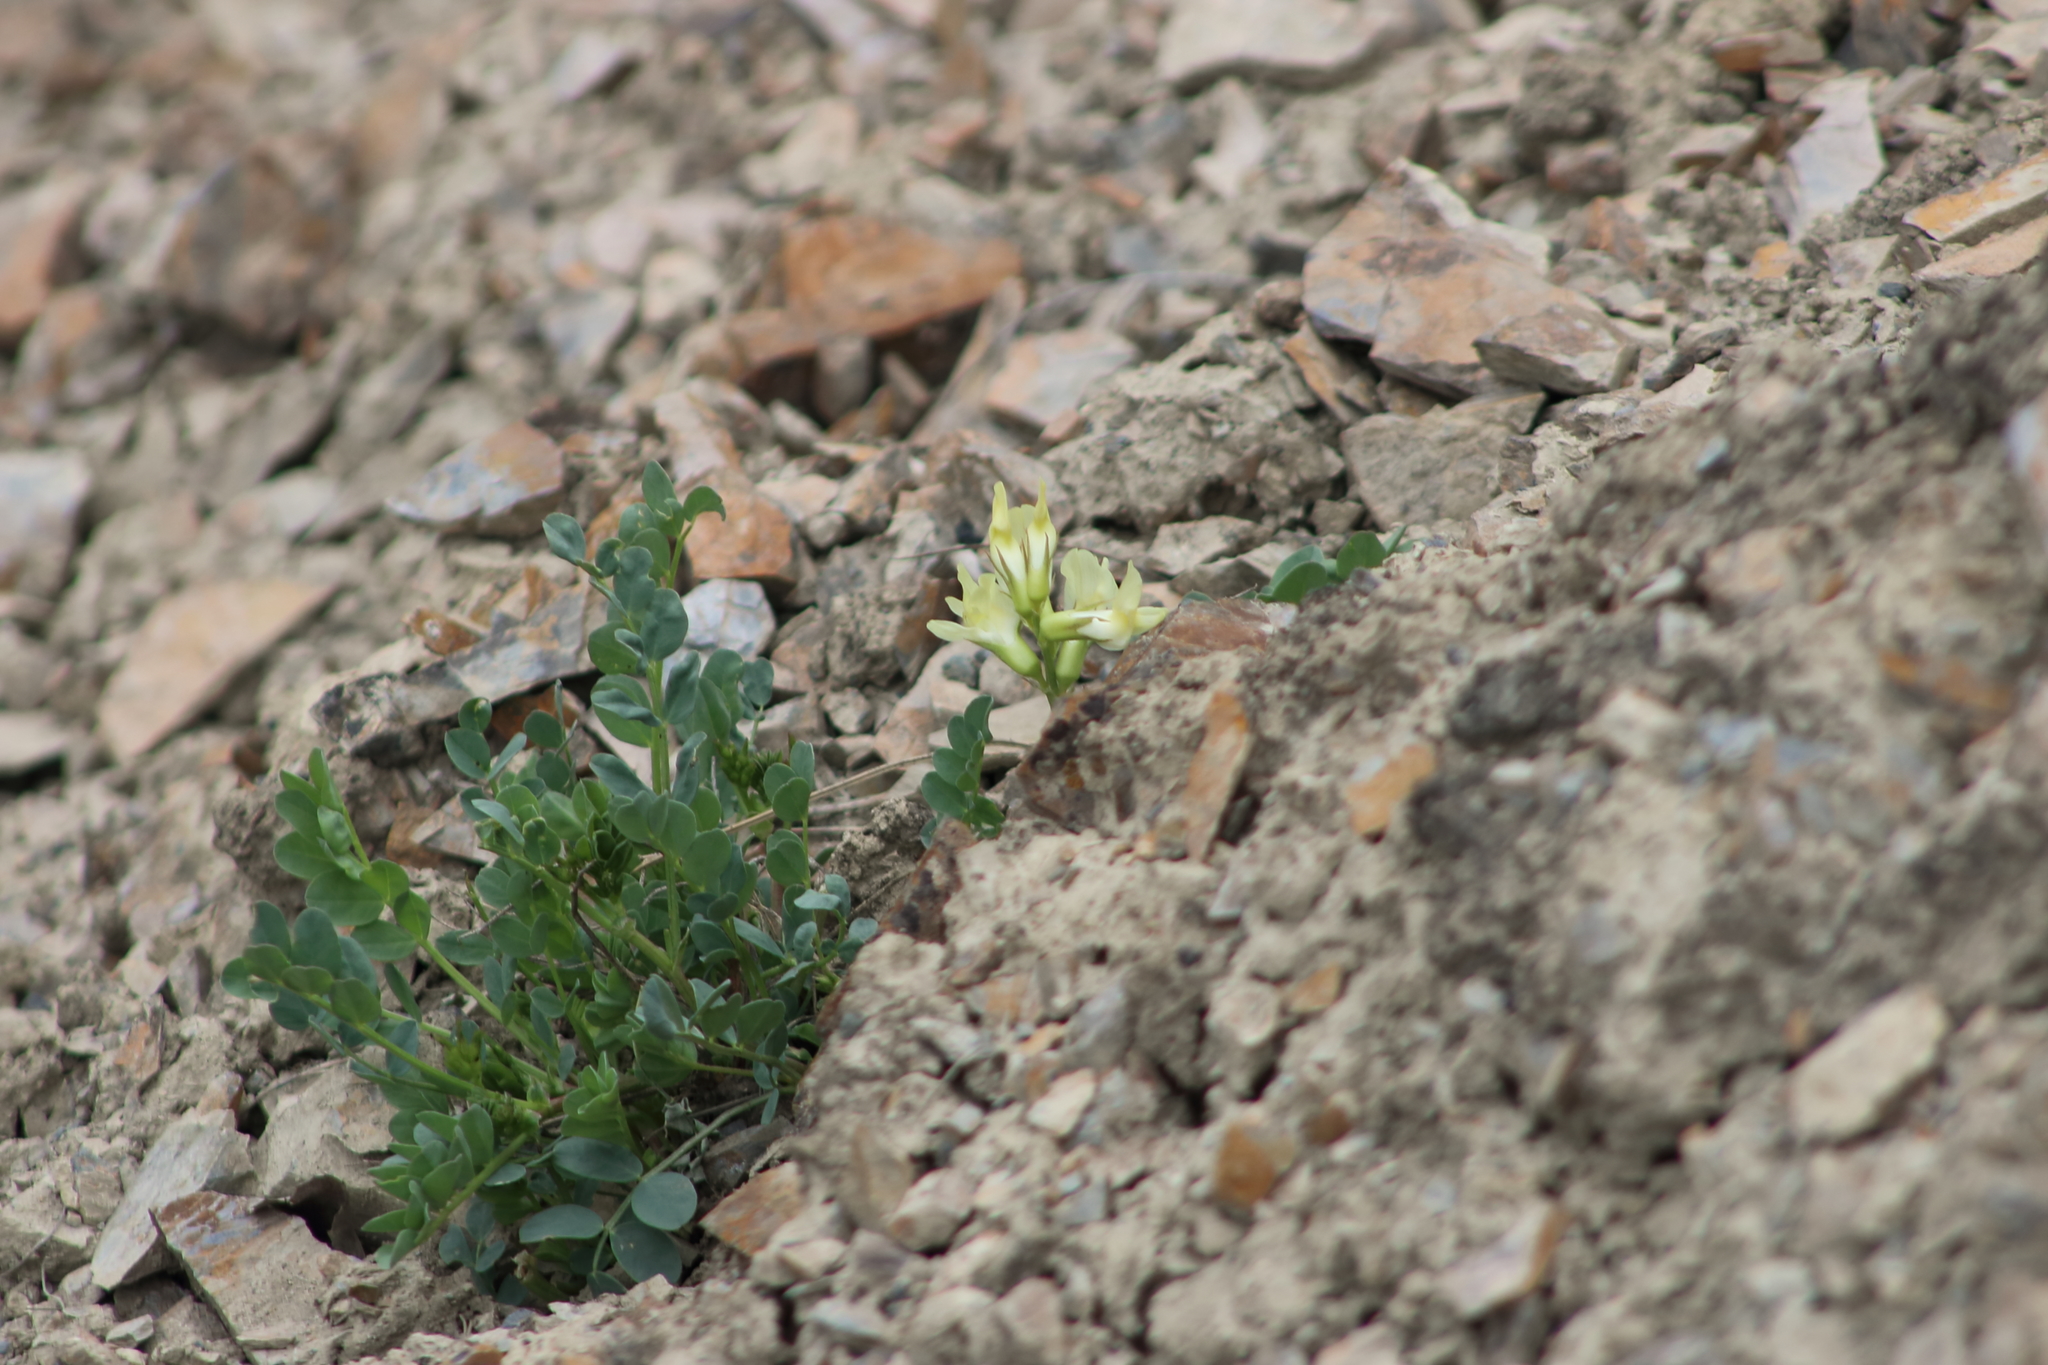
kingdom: Plantae
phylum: Tracheophyta
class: Magnoliopsida
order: Fabales
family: Fabaceae
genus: Astragalus
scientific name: Astragalus beckwithii
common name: Beckwith's milk-vetch
